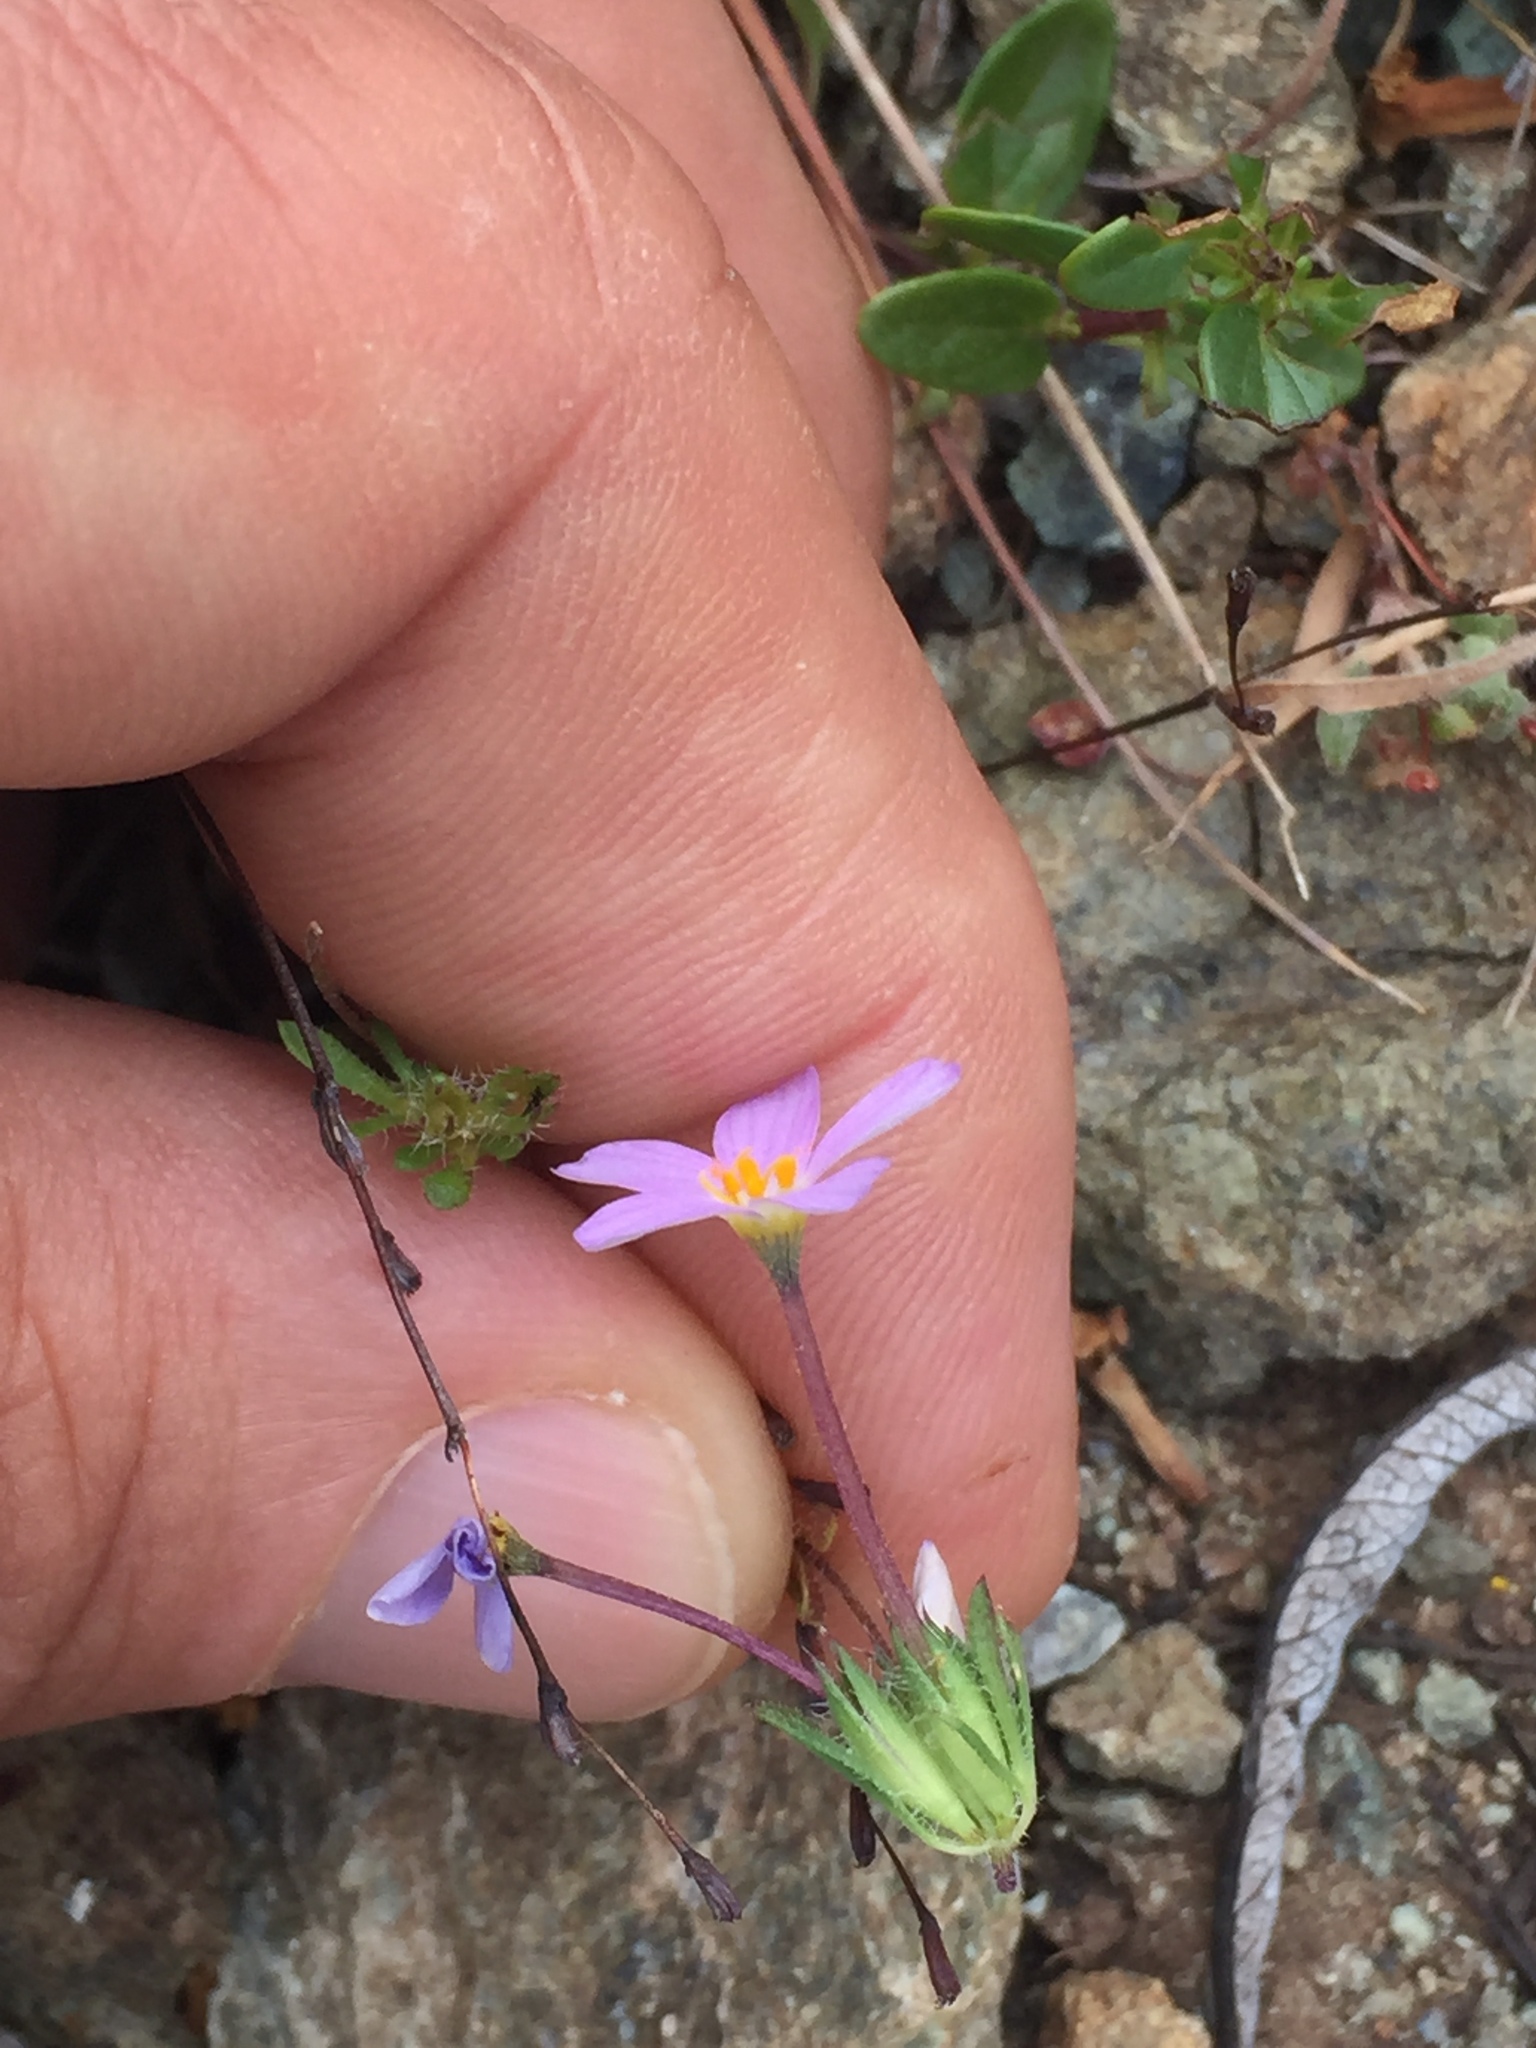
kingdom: Plantae
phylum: Tracheophyta
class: Magnoliopsida
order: Ericales
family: Polemoniaceae
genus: Leptosiphon
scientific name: Leptosiphon androsaceus
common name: False babystars
